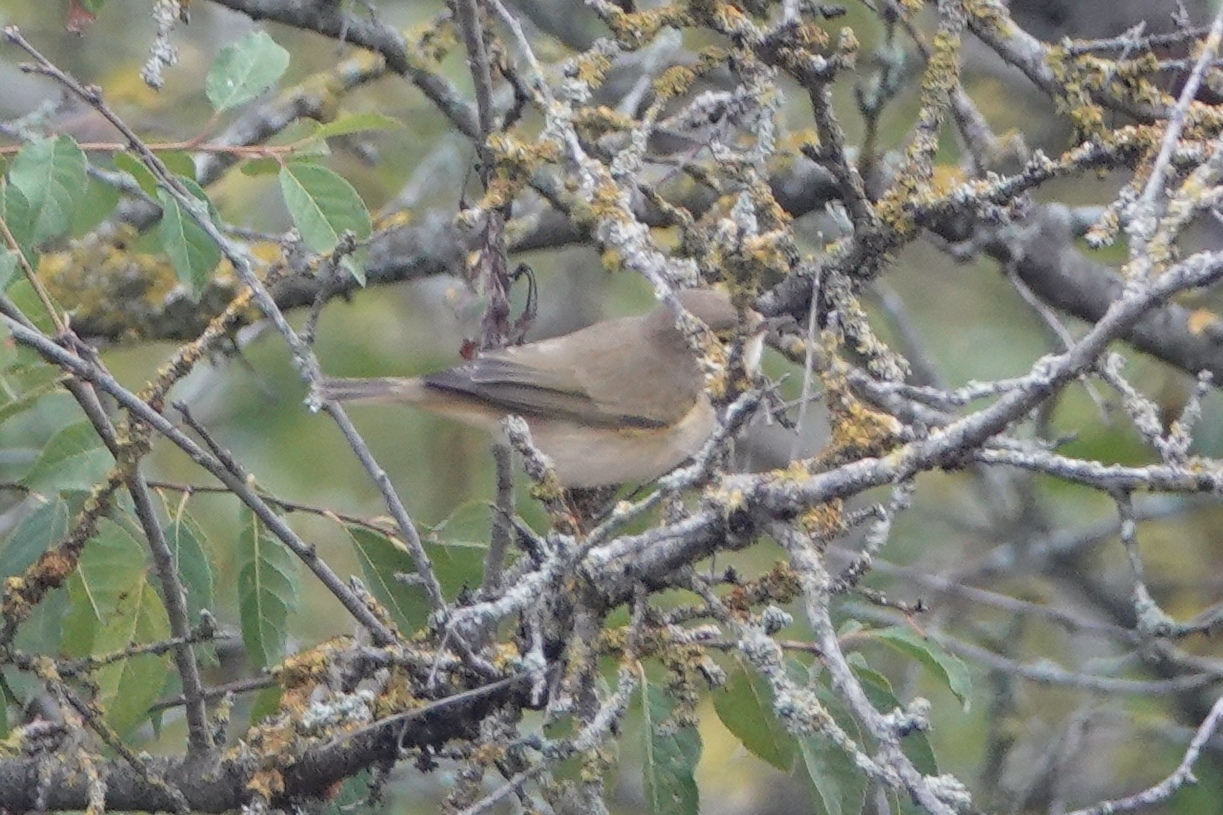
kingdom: Animalia
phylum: Chordata
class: Aves
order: Passeriformes
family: Phylloscopidae
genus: Phylloscopus
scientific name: Phylloscopus collybita
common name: Common chiffchaff
